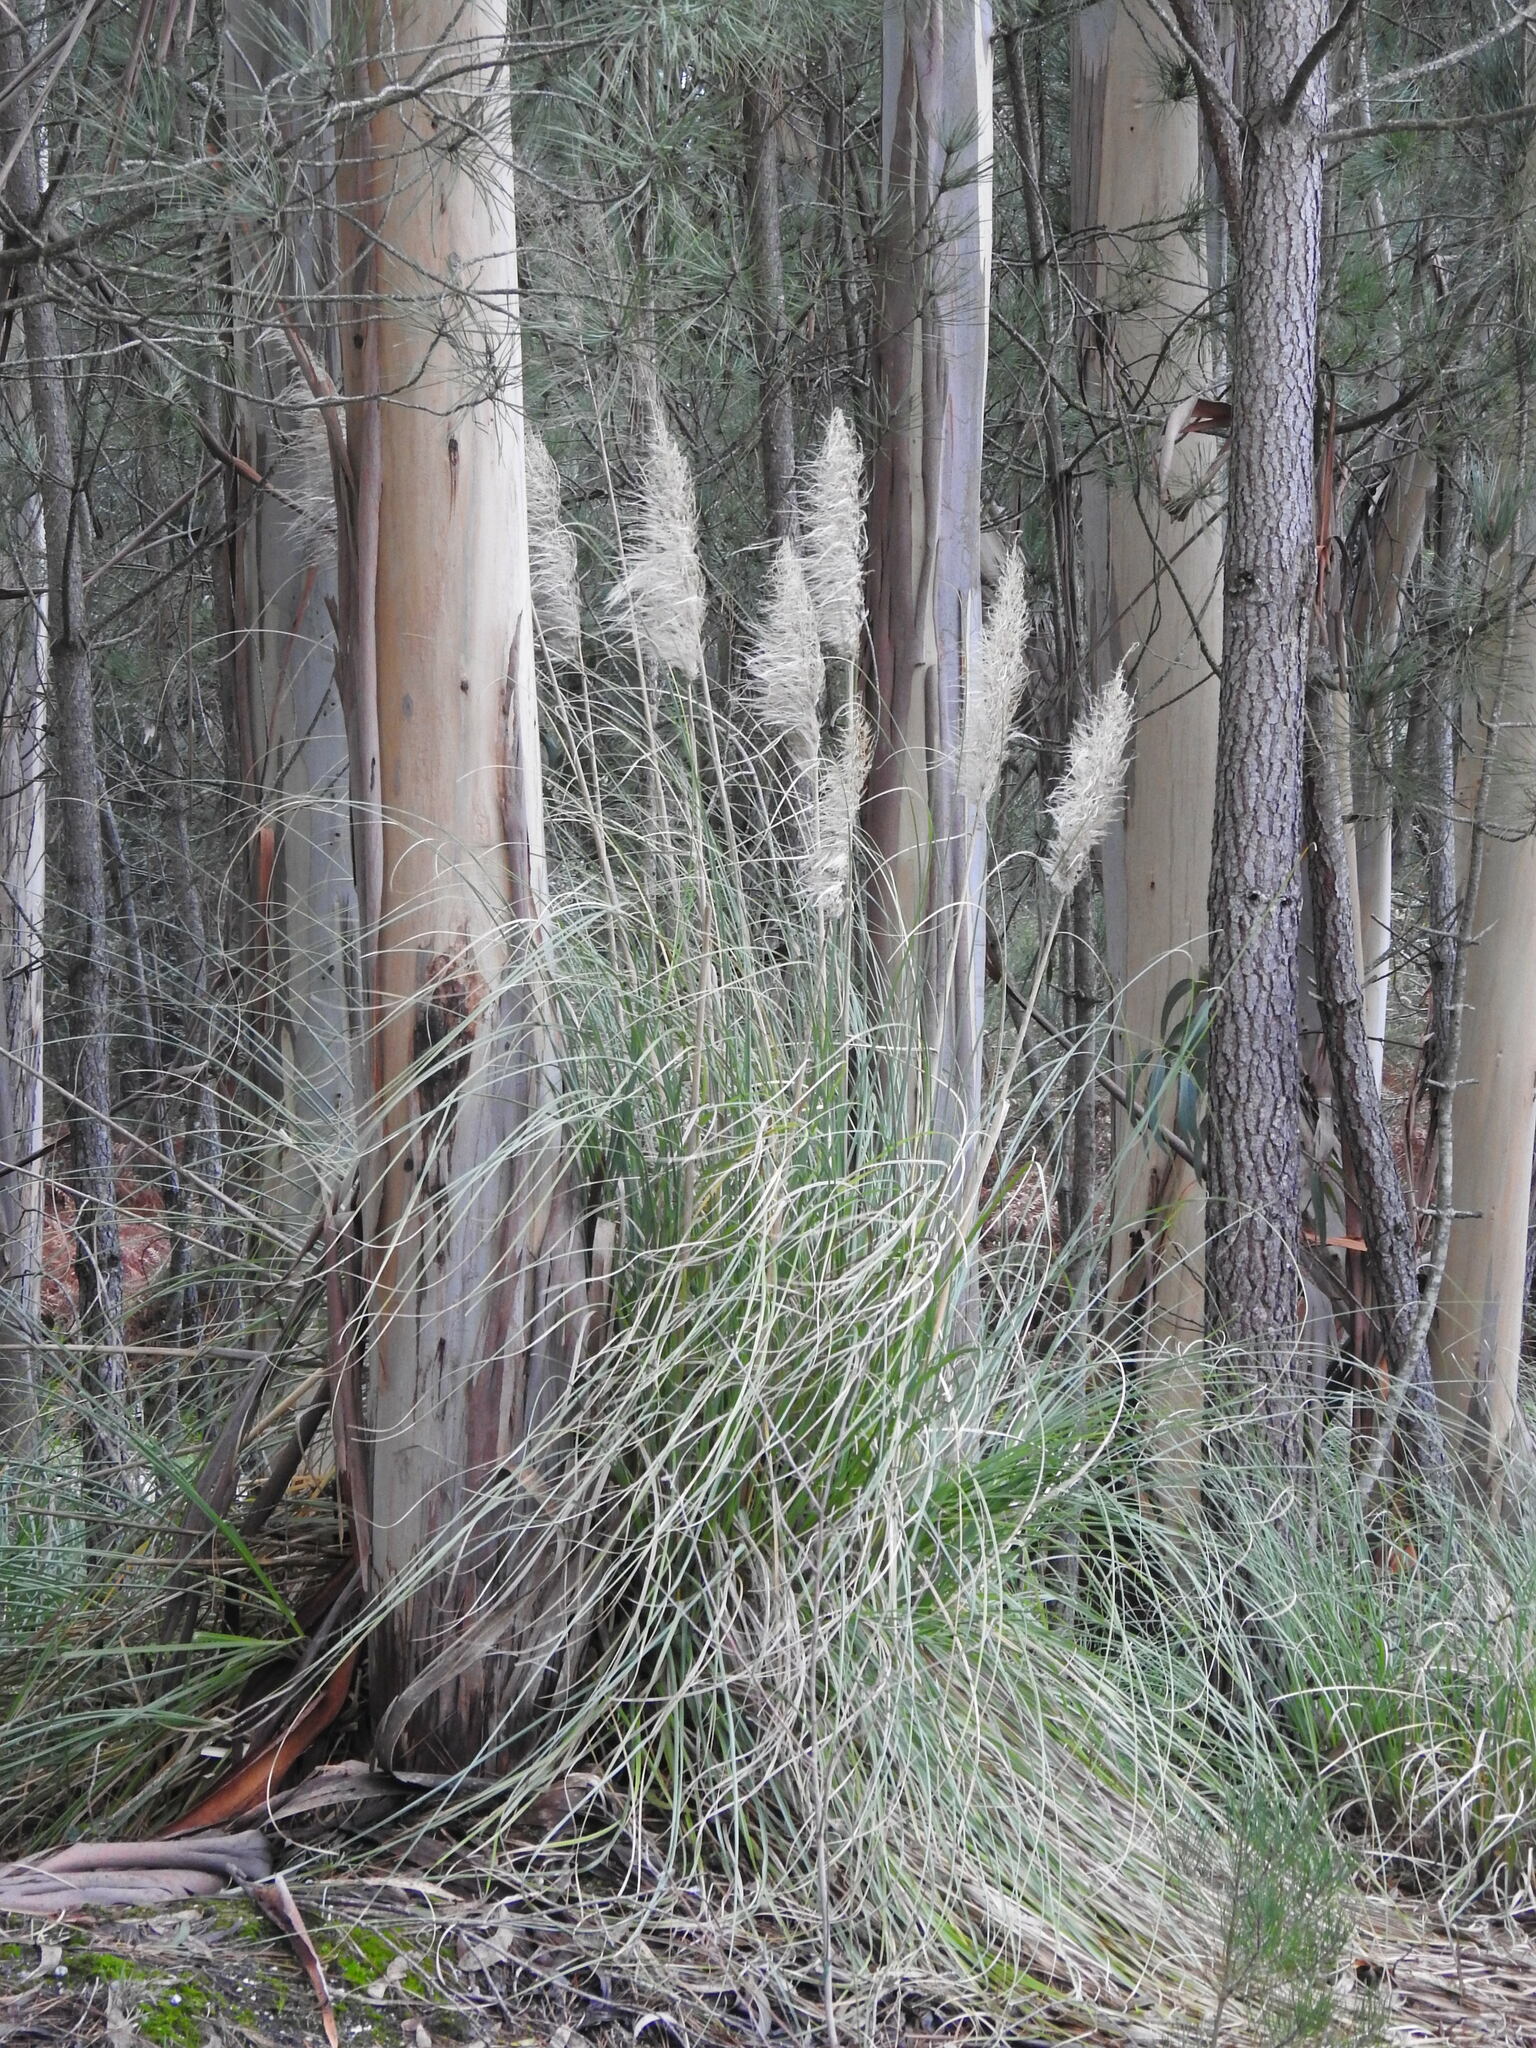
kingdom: Plantae
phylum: Tracheophyta
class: Liliopsida
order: Poales
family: Poaceae
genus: Cortaderia
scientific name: Cortaderia selloana
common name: Uruguayan pampas grass
